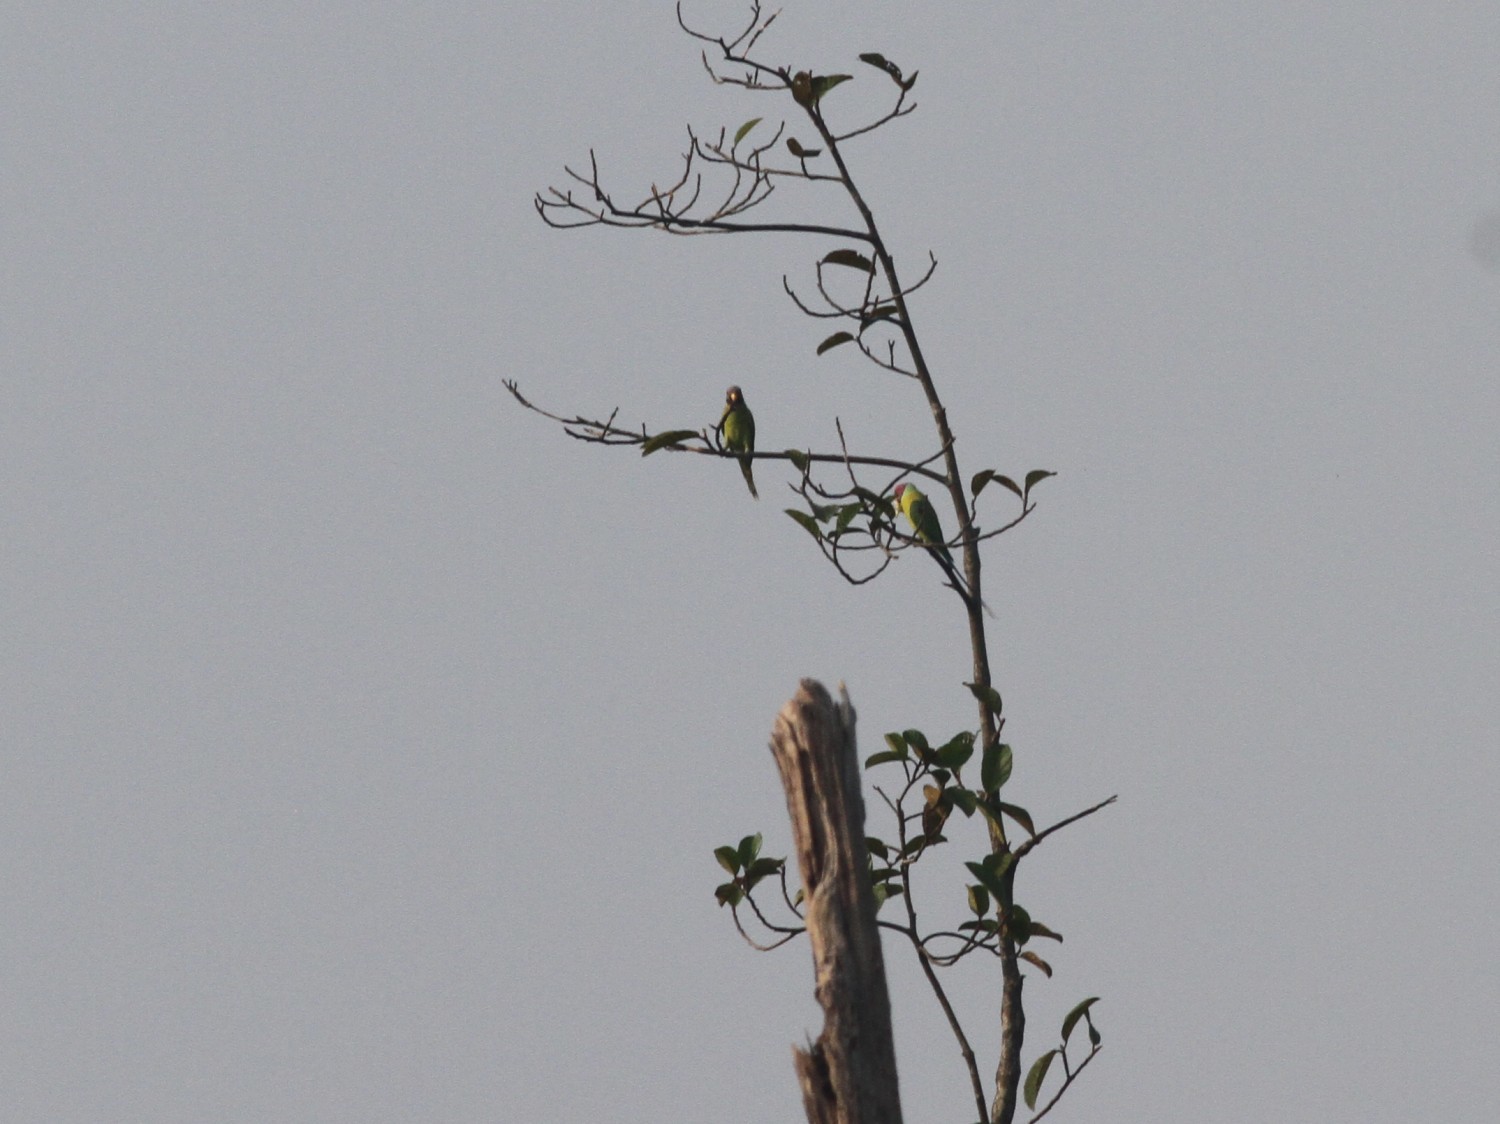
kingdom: Animalia
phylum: Chordata
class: Aves
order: Psittaciformes
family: Psittacidae
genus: Psittacula
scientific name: Psittacula cyanocephala
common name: Plum-headed parakeet
